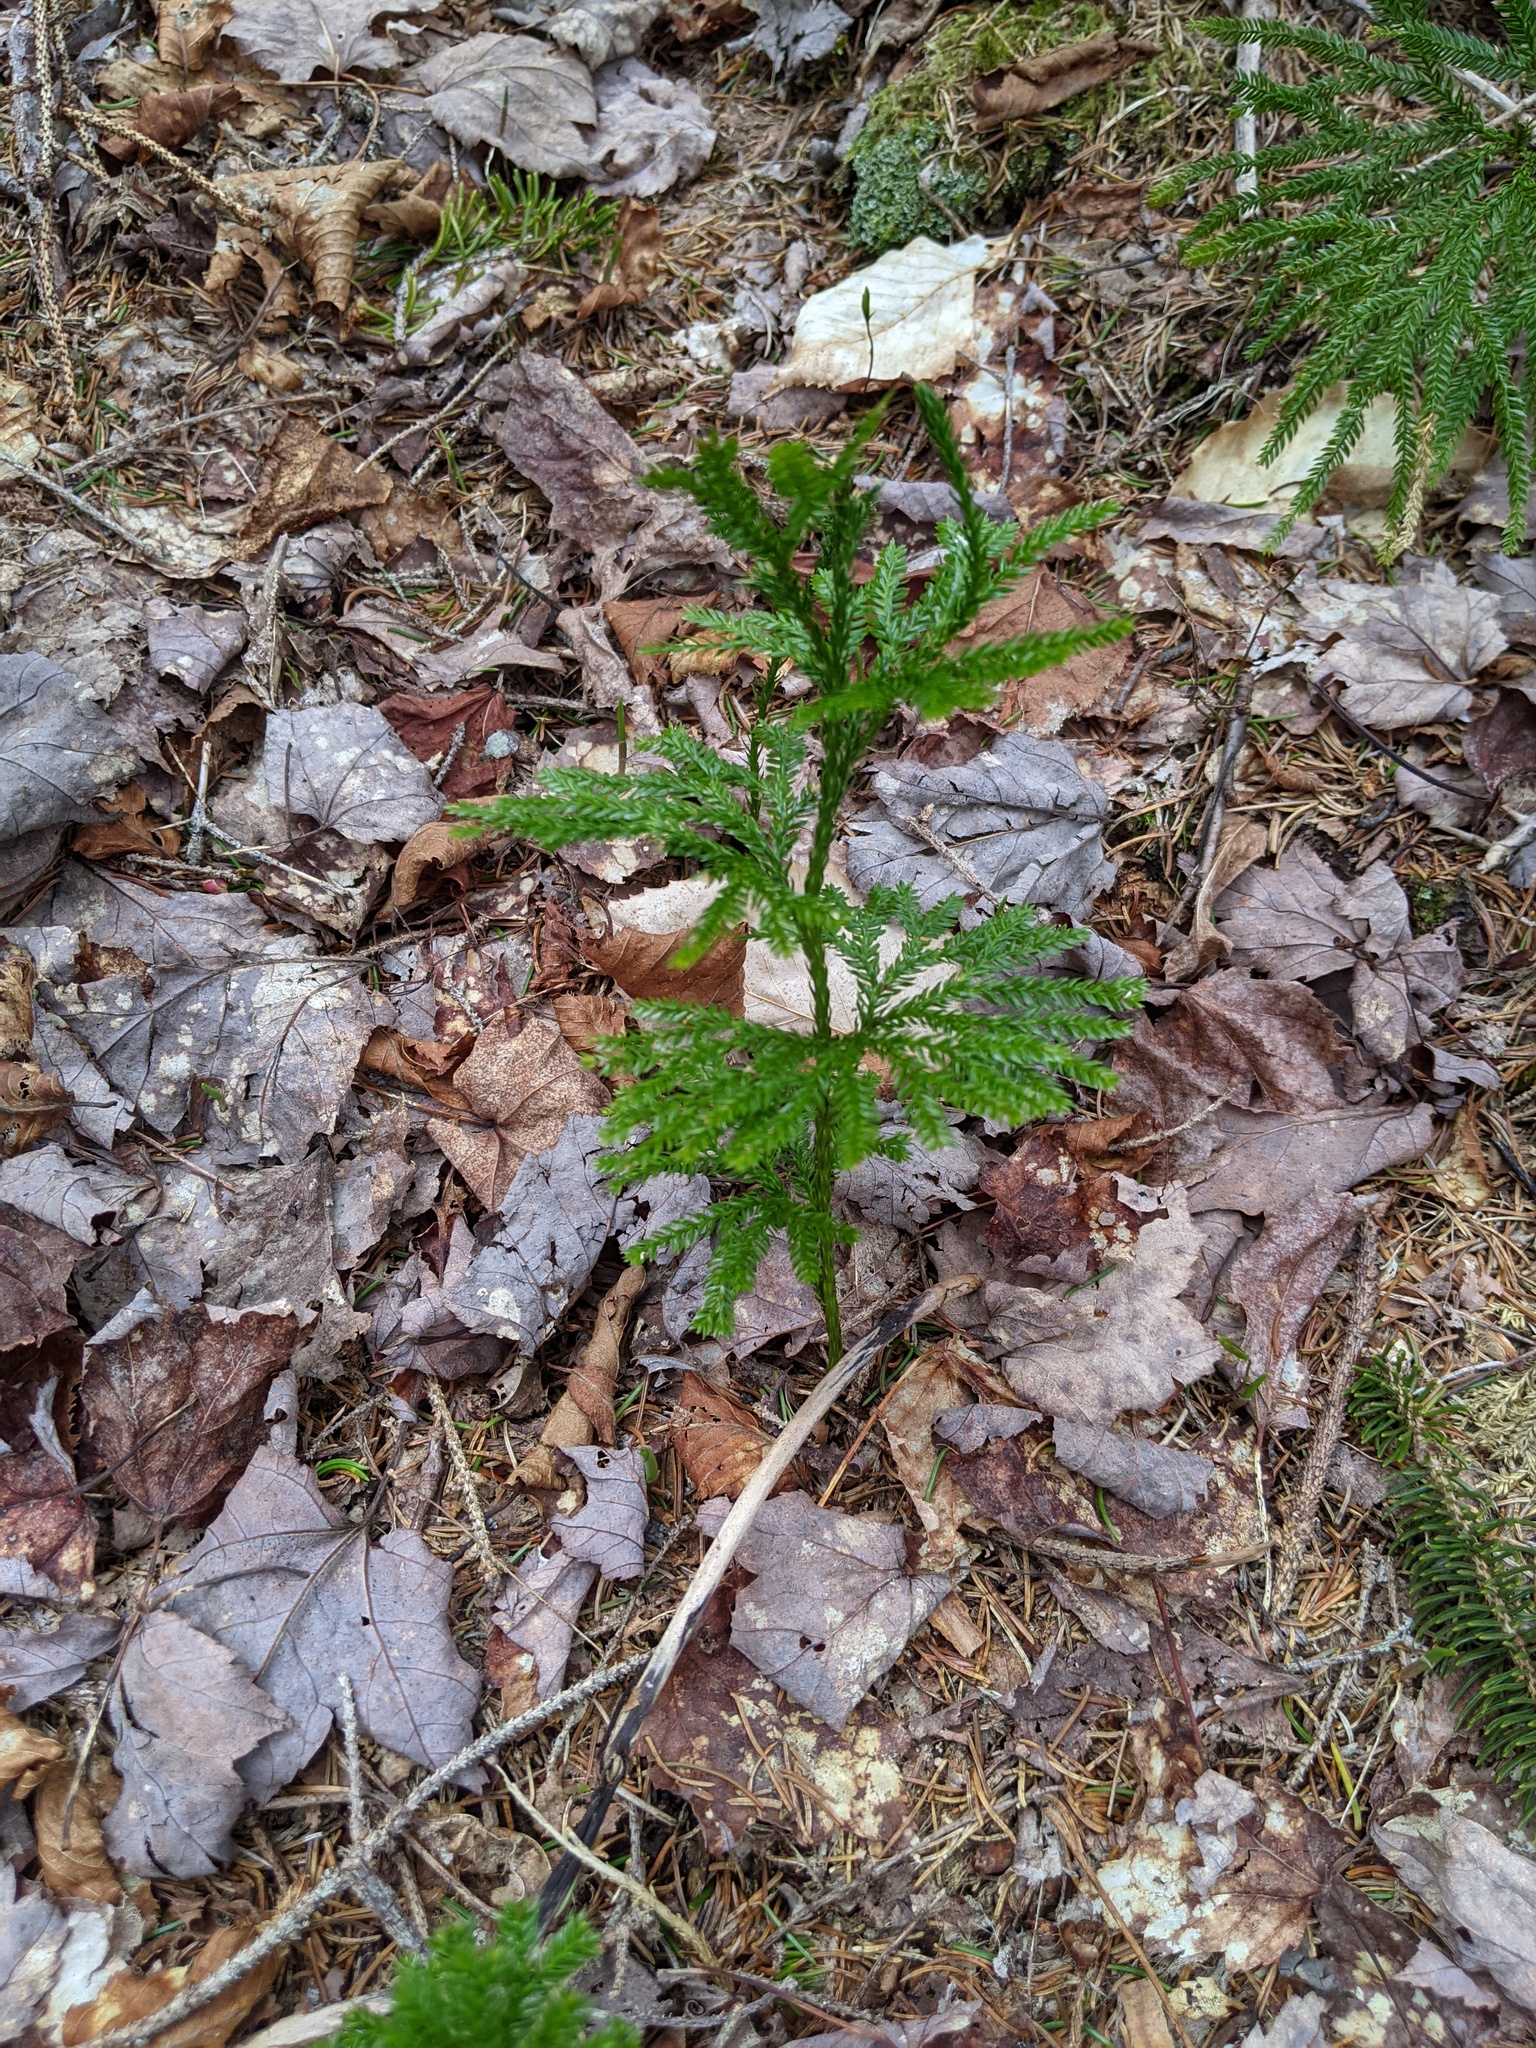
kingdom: Plantae
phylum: Tracheophyta
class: Lycopodiopsida
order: Lycopodiales
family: Lycopodiaceae
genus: Dendrolycopodium
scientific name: Dendrolycopodium obscurum
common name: Common ground-pine
